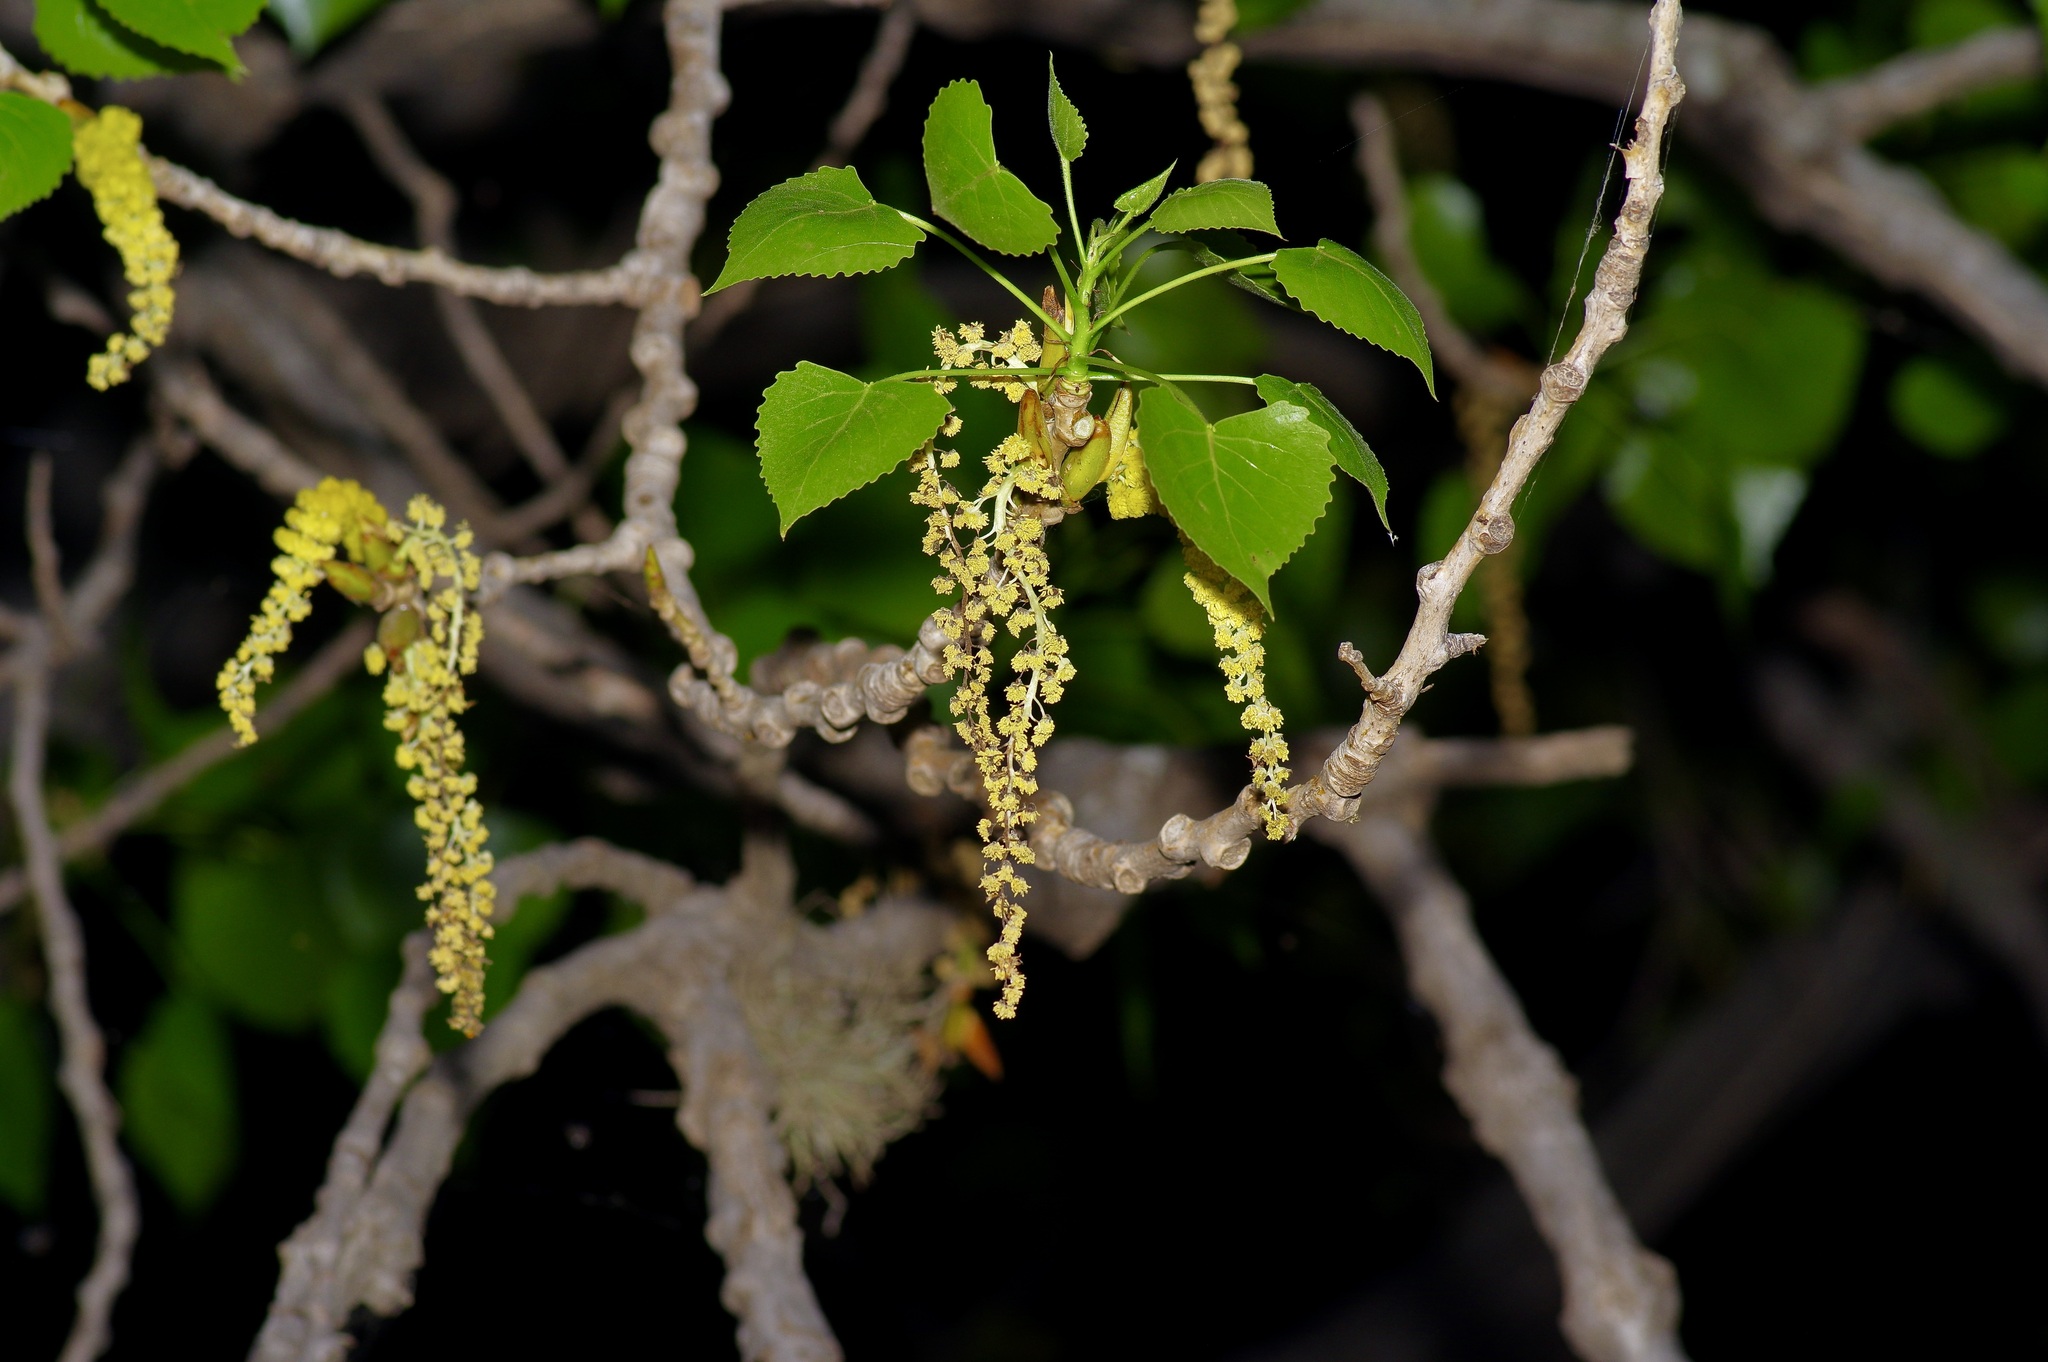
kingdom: Plantae
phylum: Tracheophyta
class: Magnoliopsida
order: Malpighiales
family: Salicaceae
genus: Populus
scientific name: Populus deltoides
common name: Eastern cottonwood
